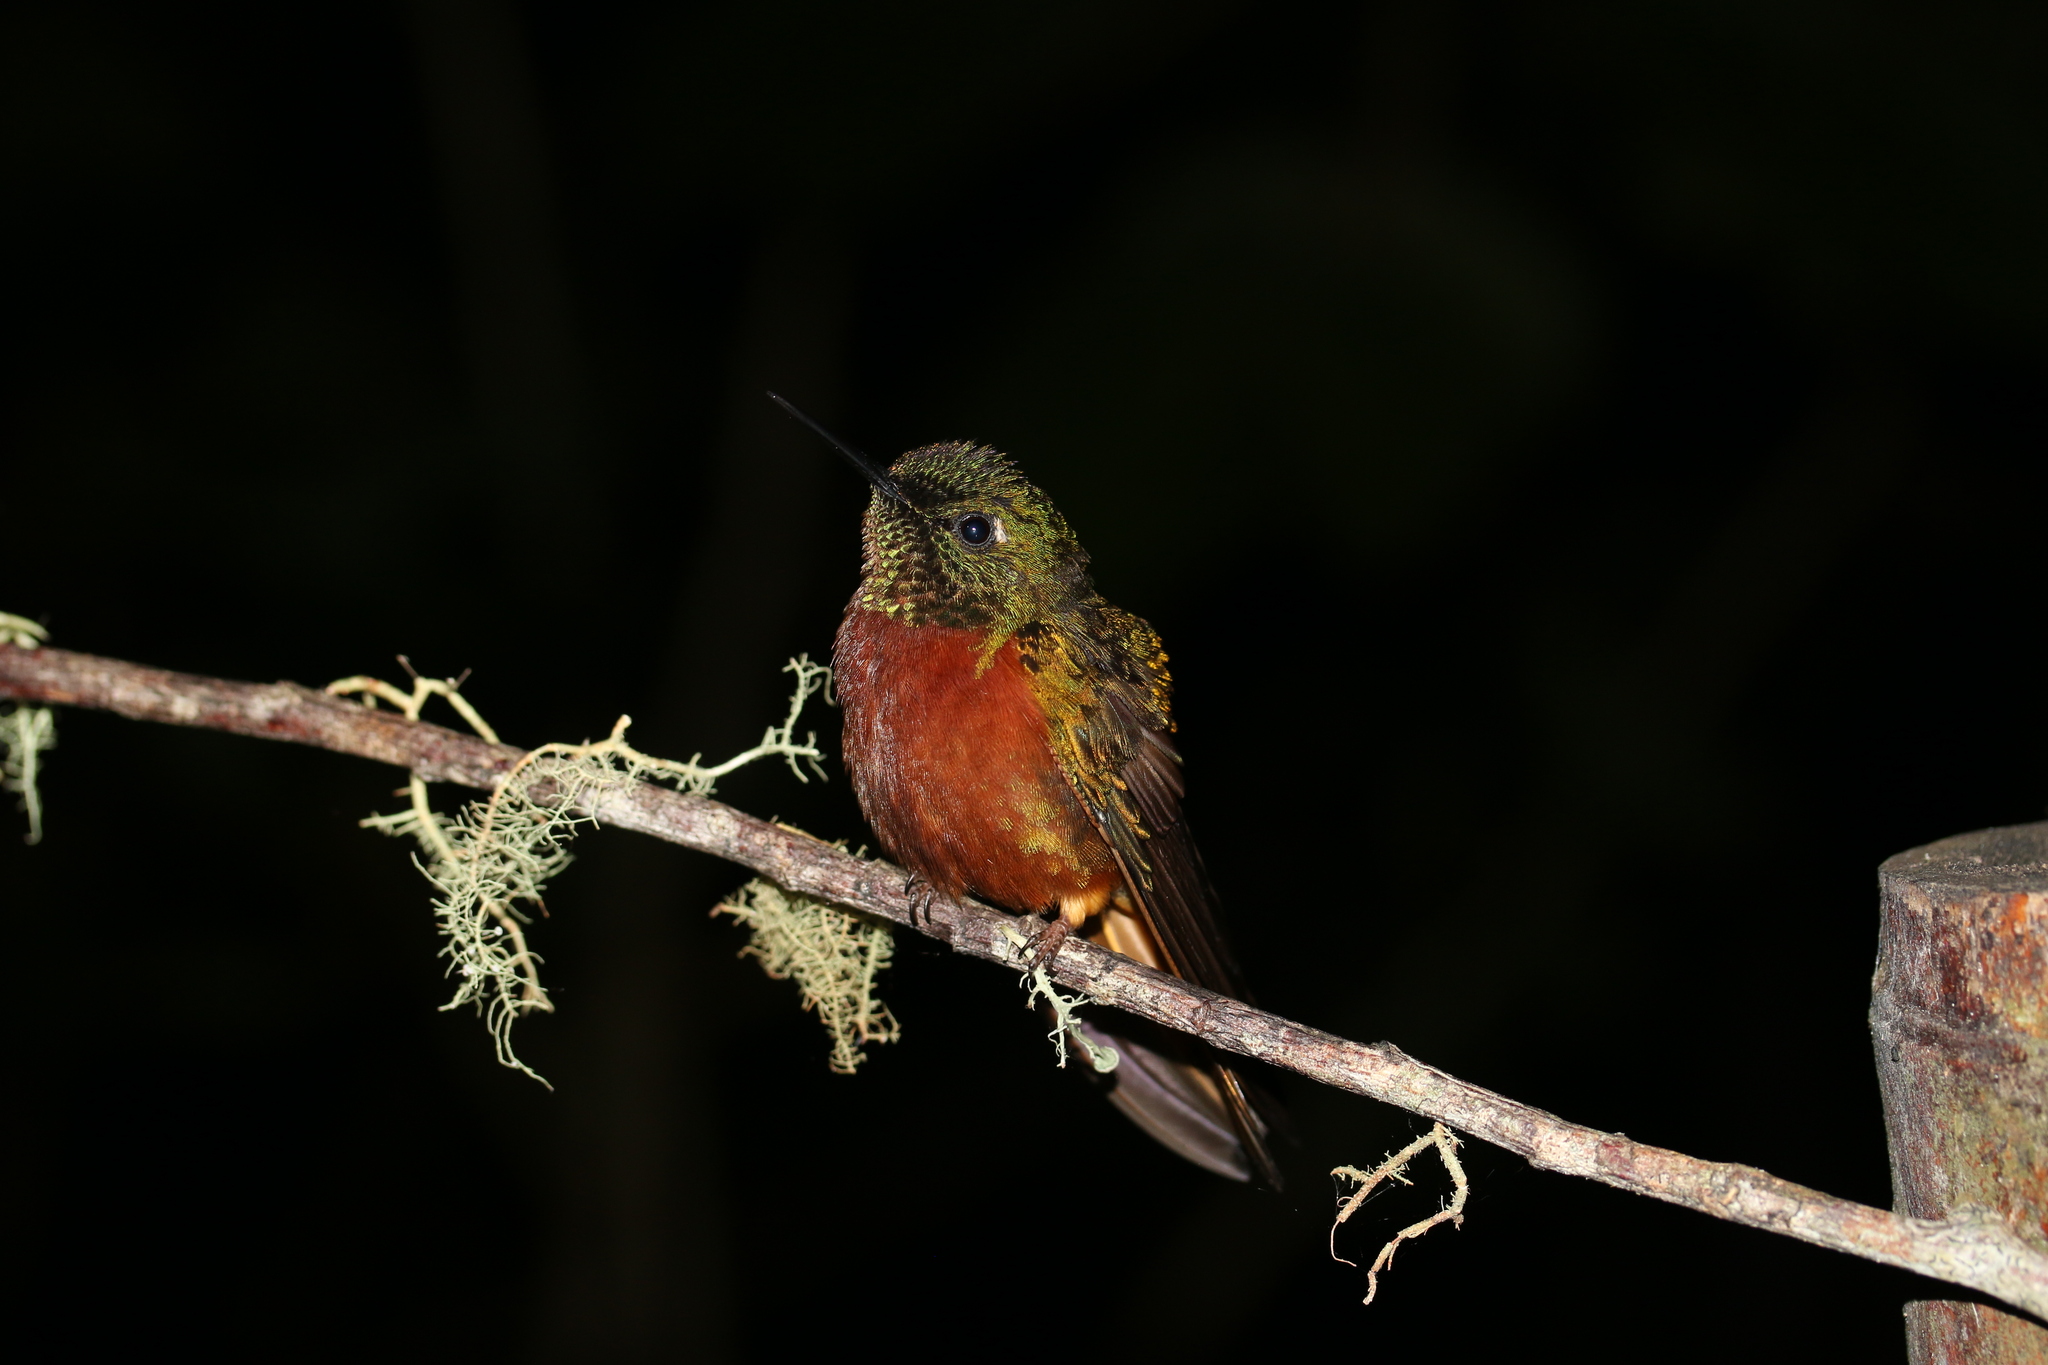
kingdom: Animalia
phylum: Chordata
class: Aves
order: Apodiformes
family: Trochilidae
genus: Boissonneaua
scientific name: Boissonneaua matthewsii
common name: Chestnut-breasted coronet
